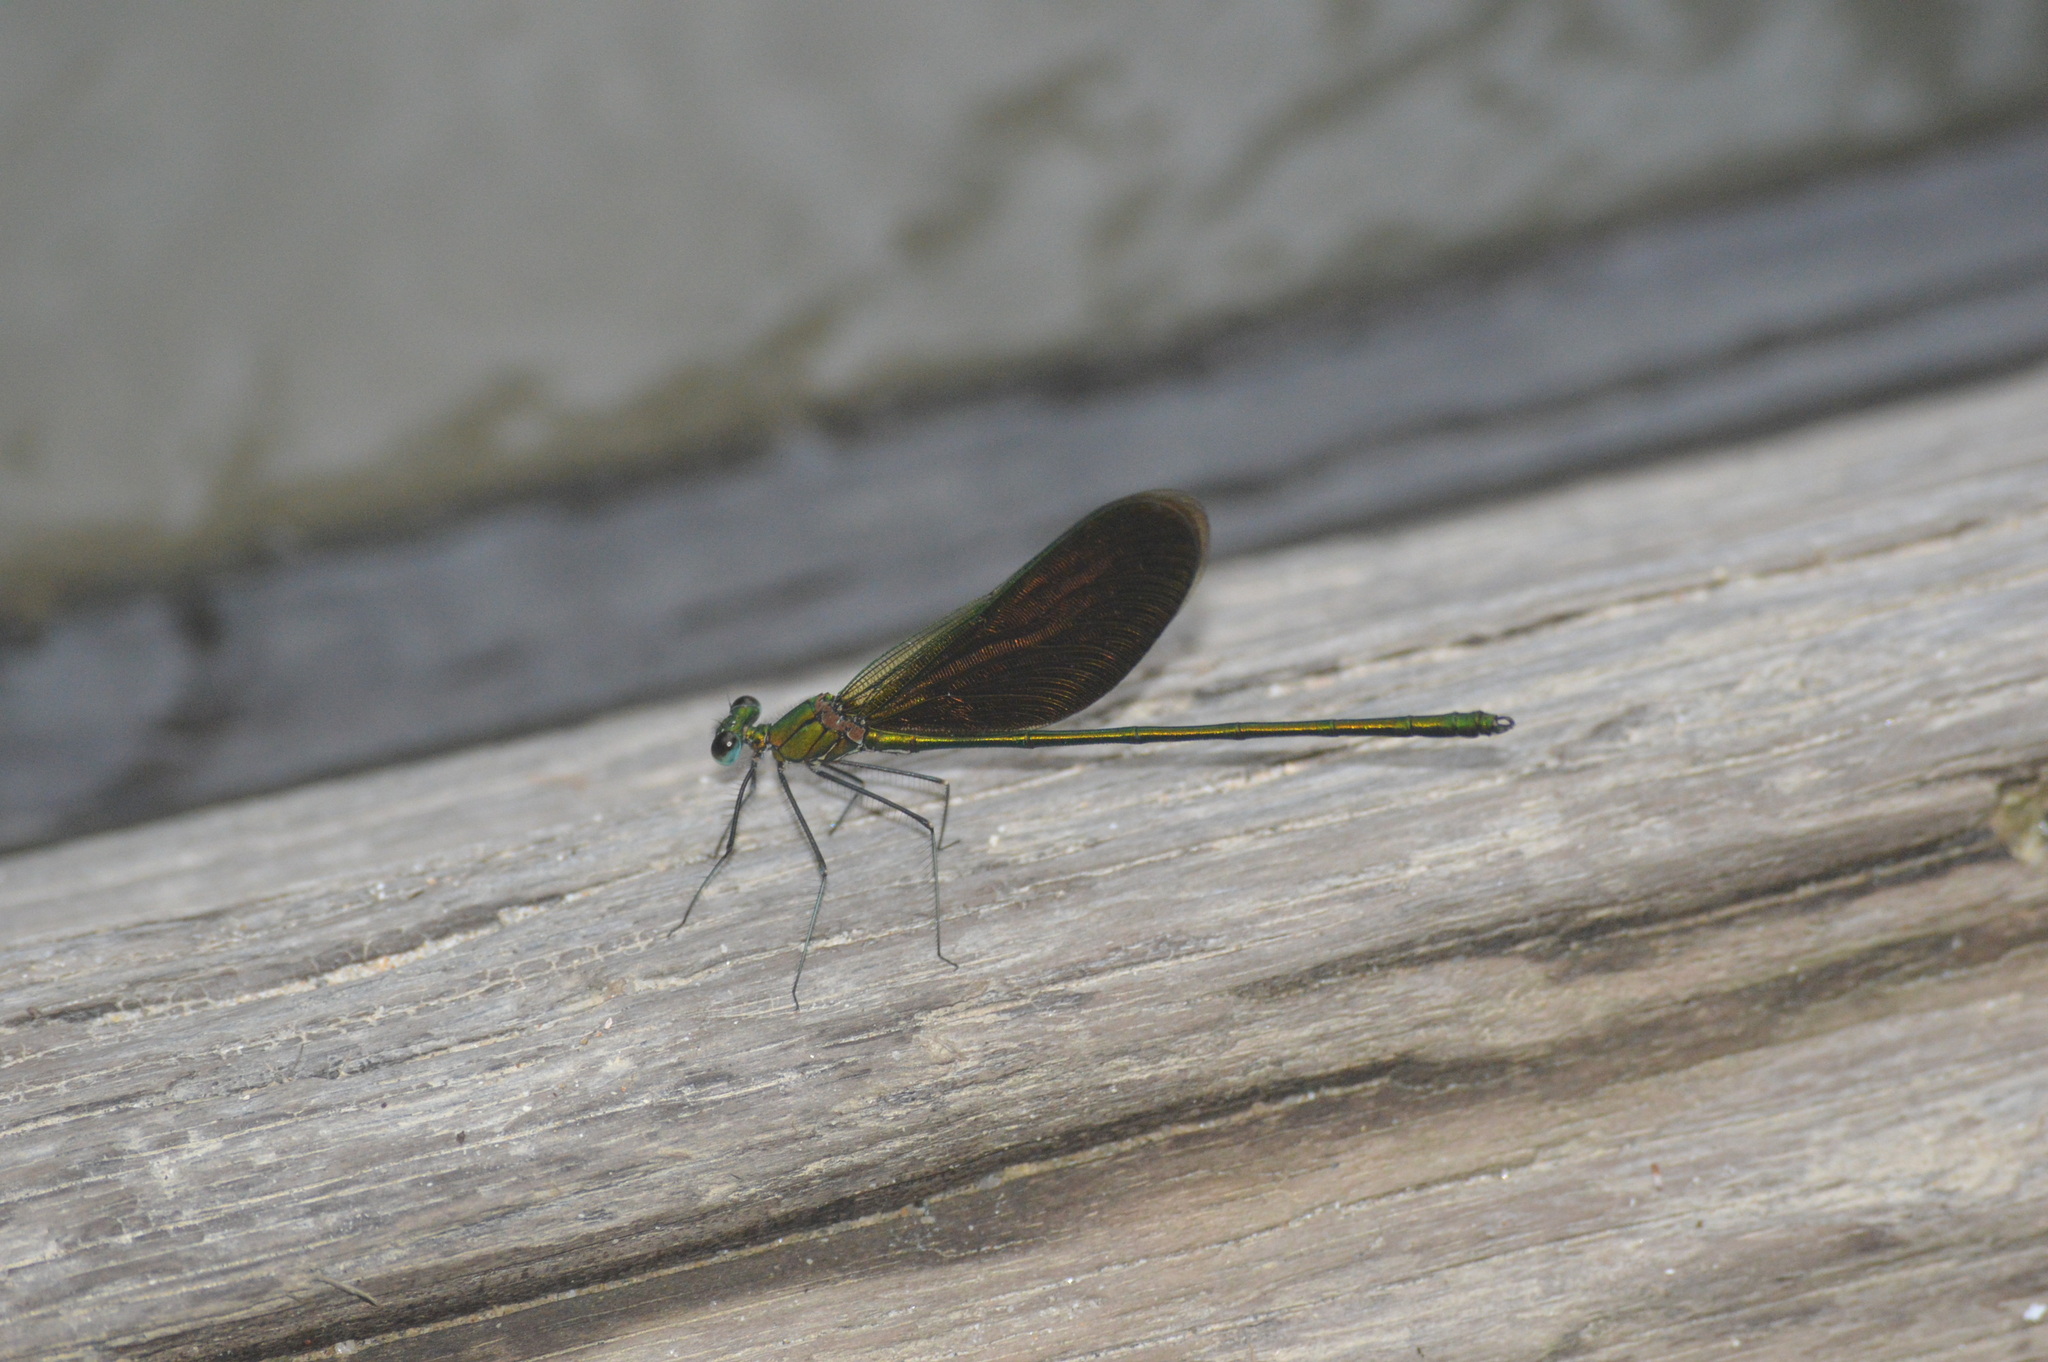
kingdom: Animalia
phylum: Arthropoda
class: Insecta
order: Odonata
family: Calopterygidae
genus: Neurobasis
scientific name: Neurobasis chinensis
